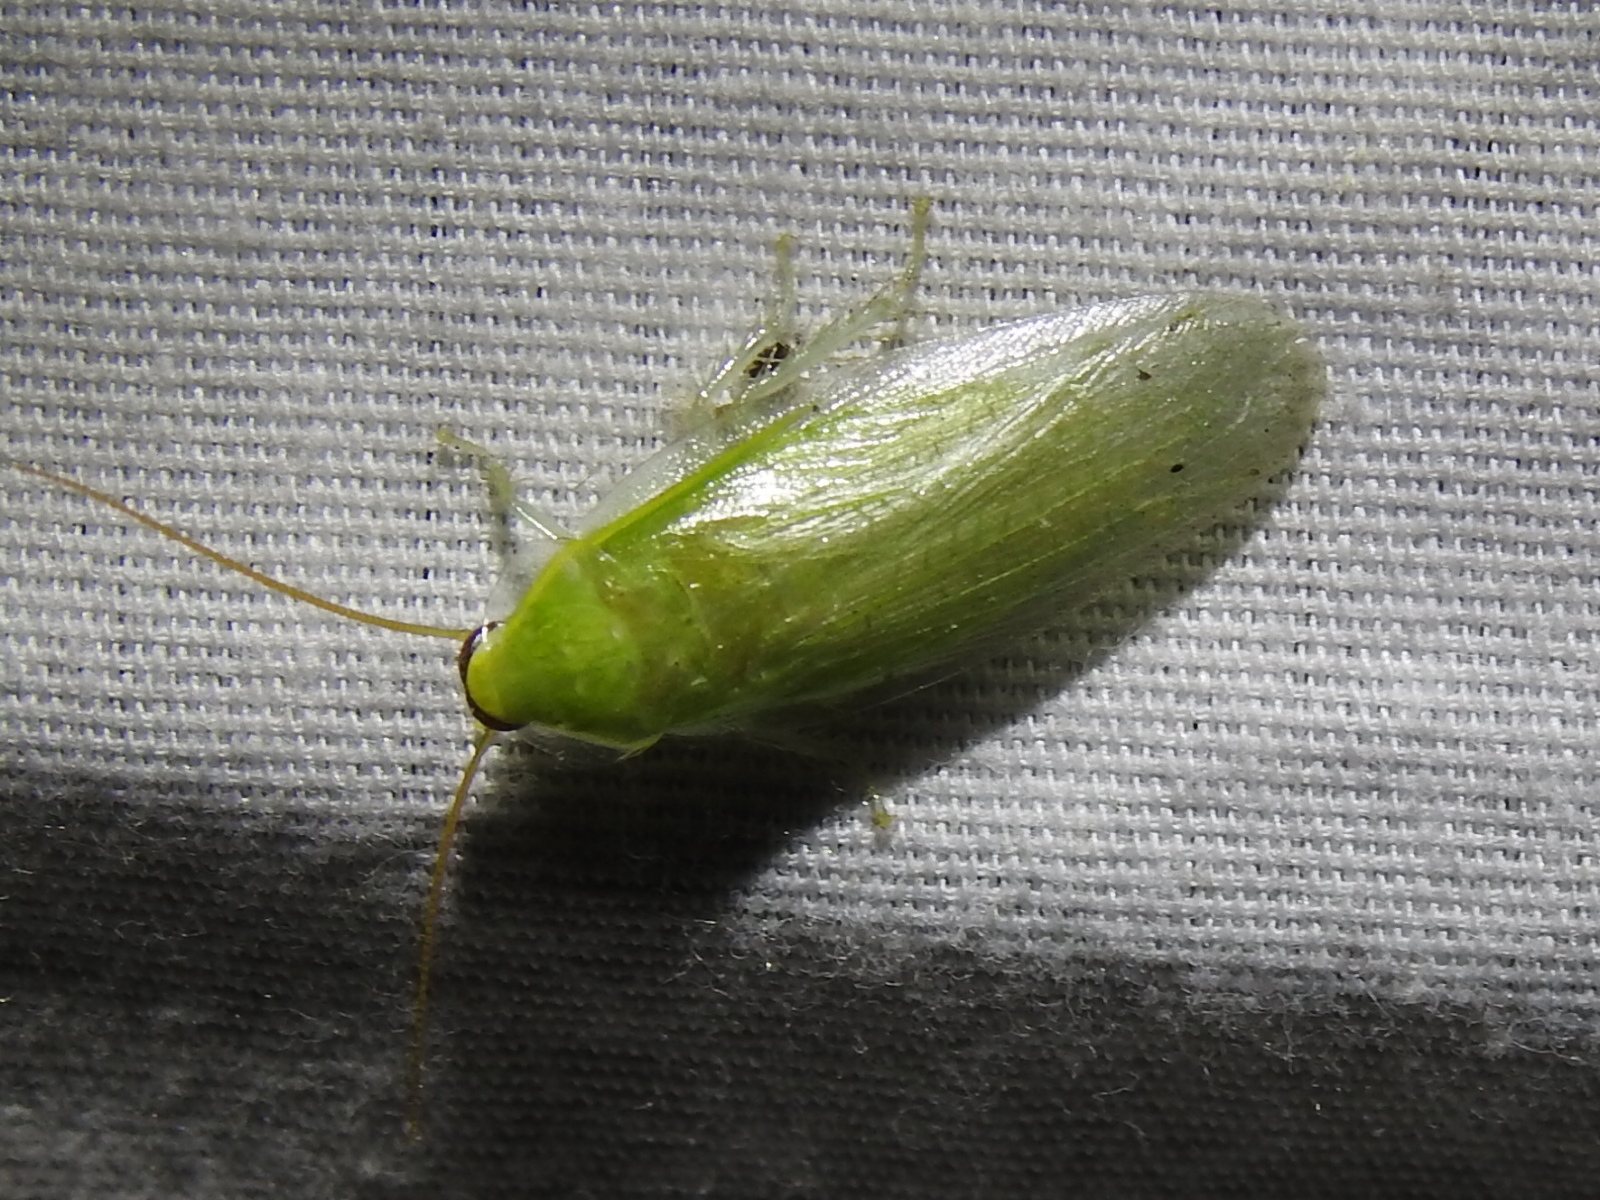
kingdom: Animalia
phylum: Arthropoda
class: Insecta
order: Blattodea
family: Blaberidae
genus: Panchlora
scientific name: Panchlora nivea
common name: Cuban cockroach
